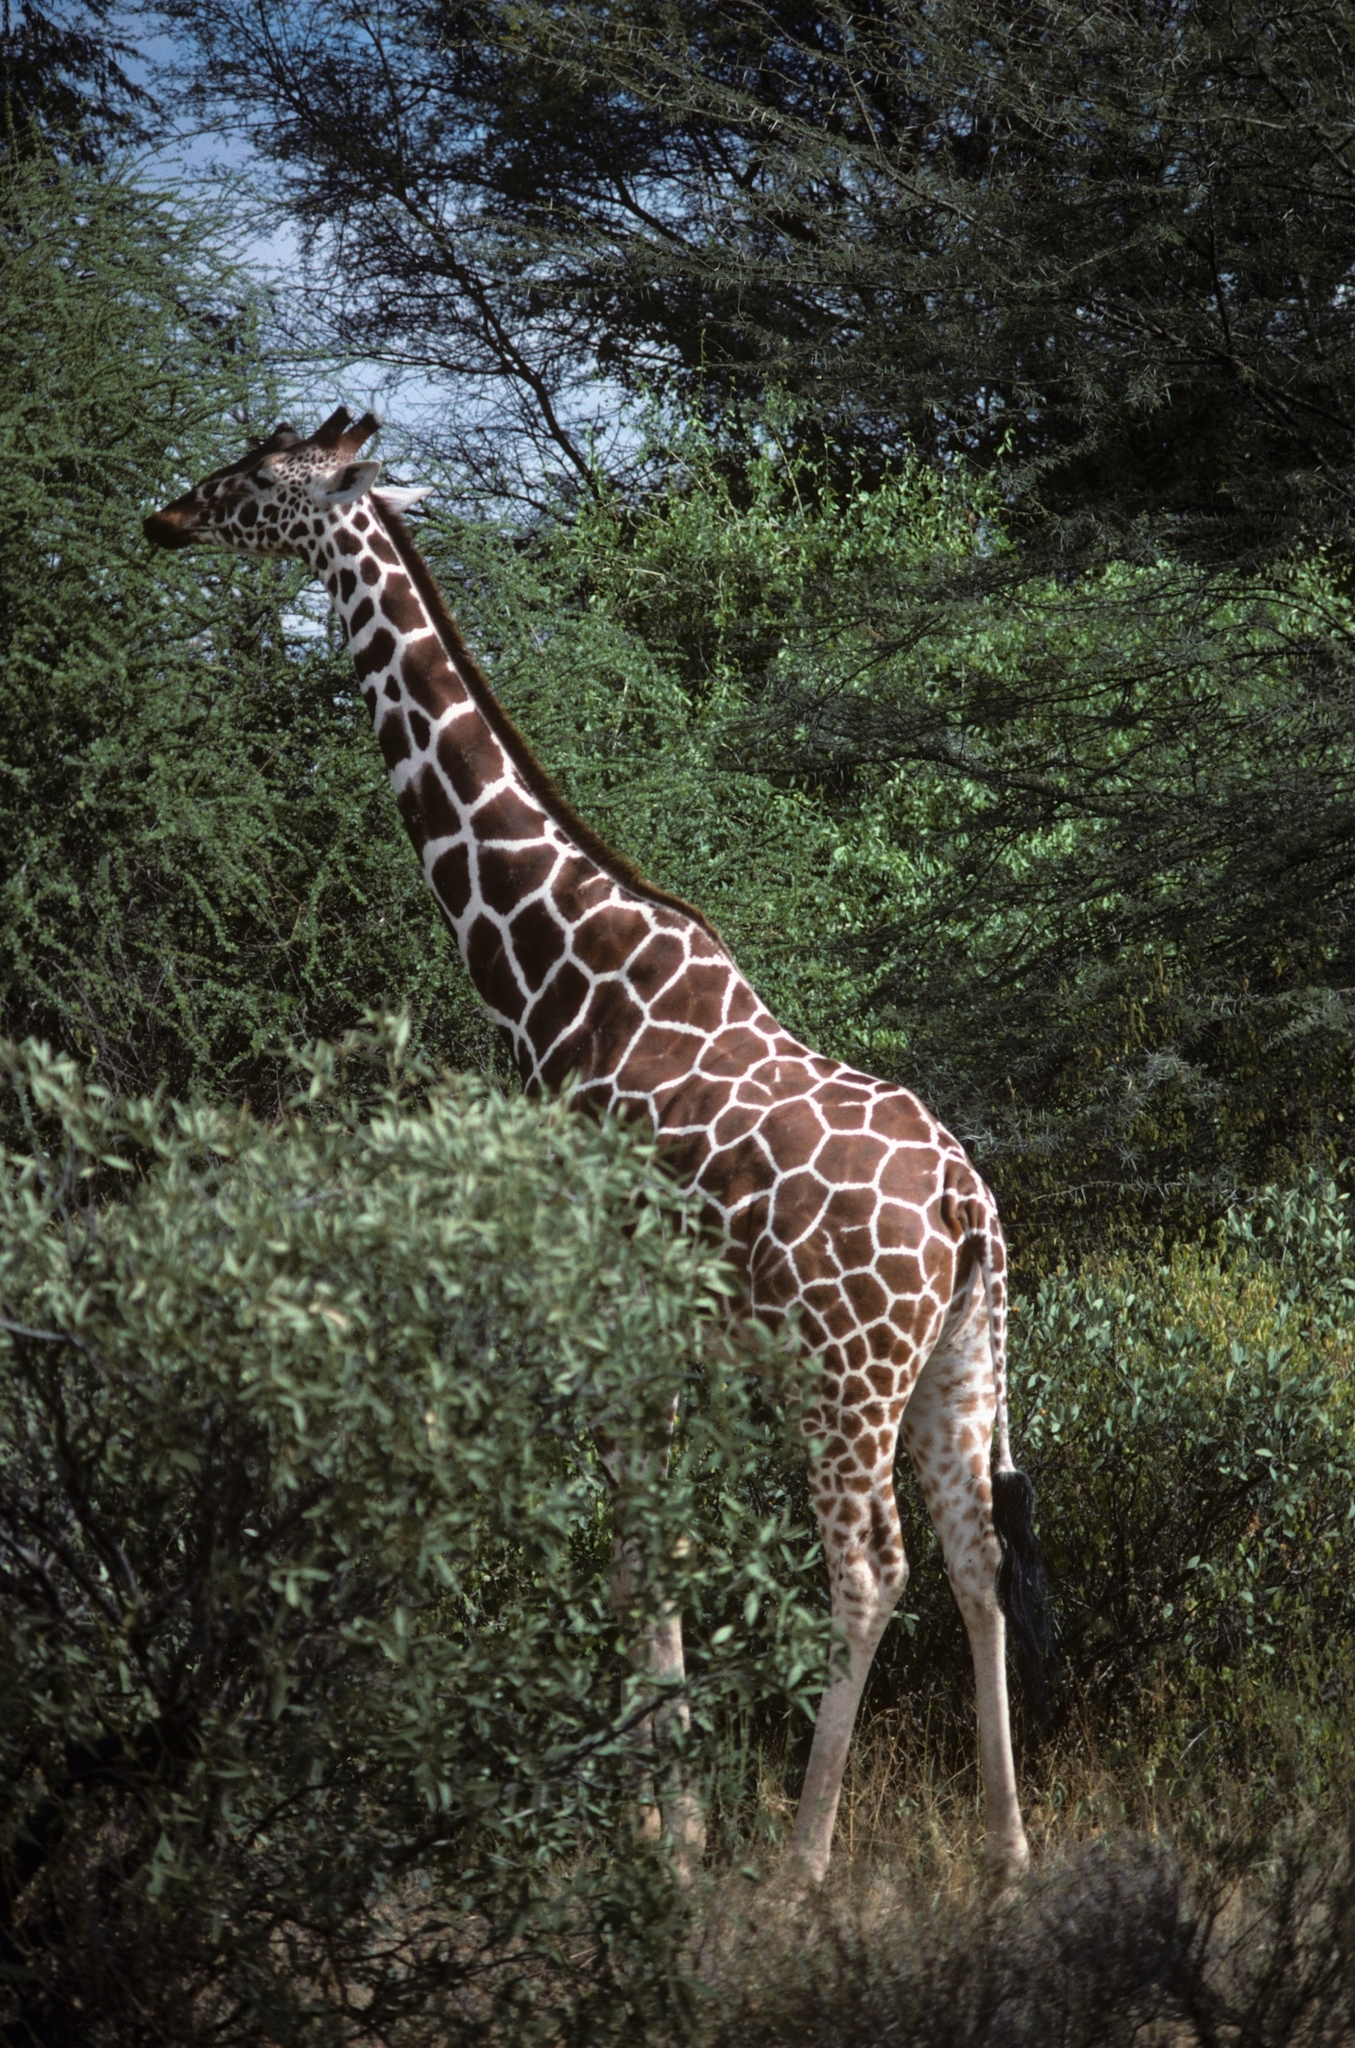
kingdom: Animalia
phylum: Chordata
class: Mammalia
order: Artiodactyla
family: Giraffidae
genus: Giraffa
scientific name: Giraffa reticulata
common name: Reticulated giraffe
